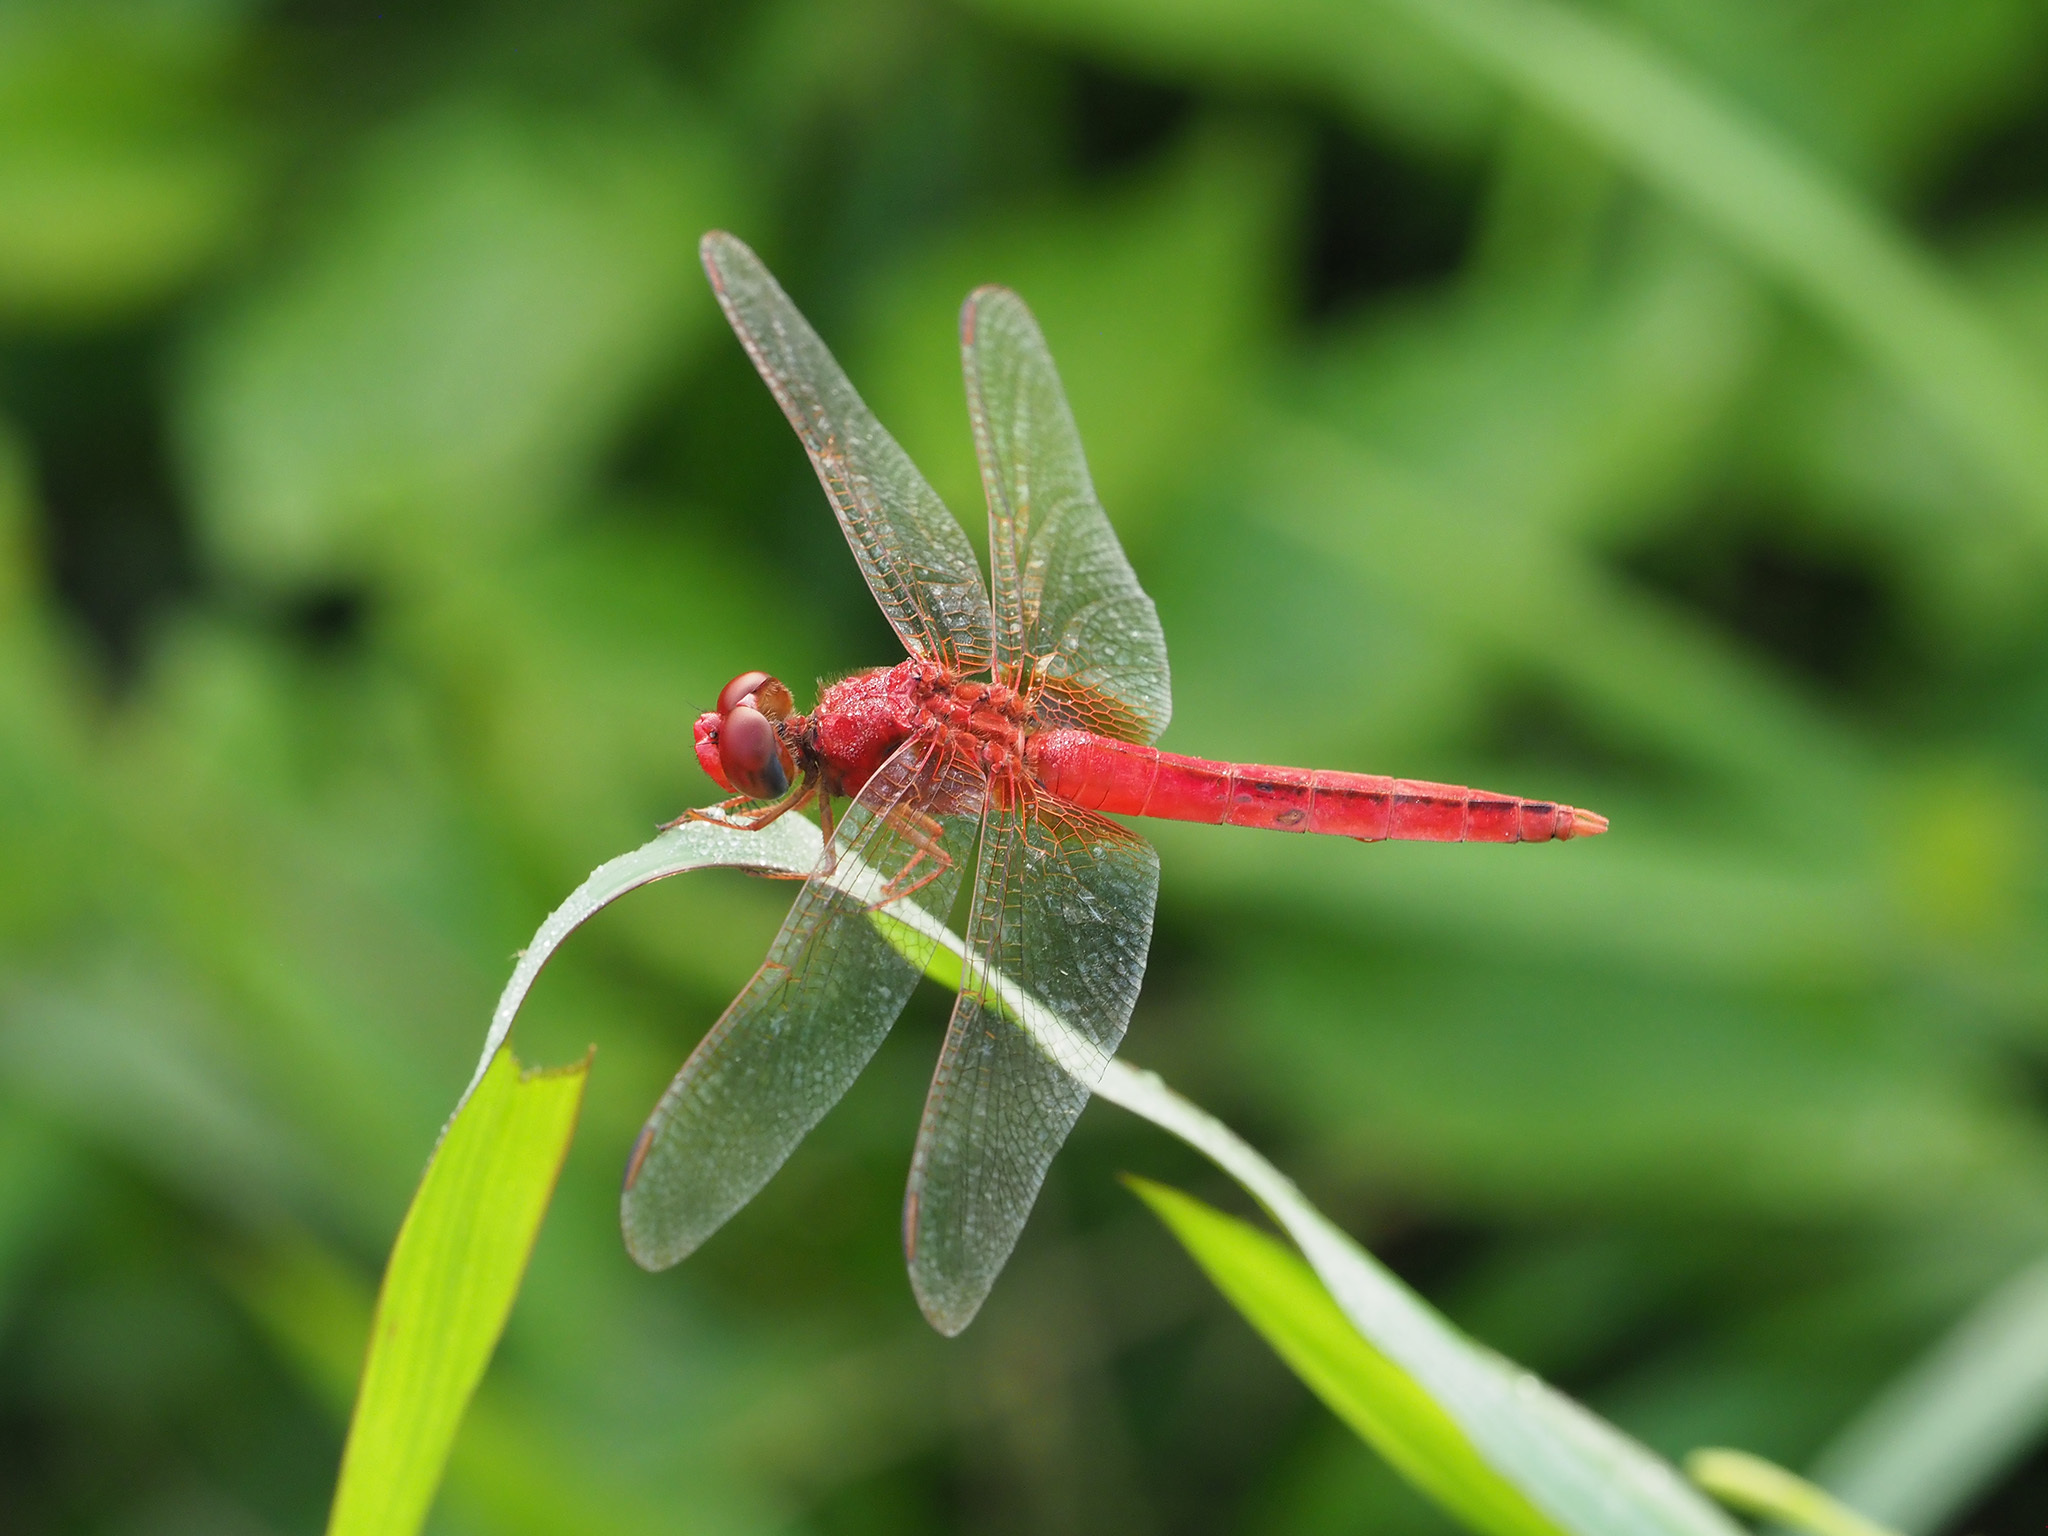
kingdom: Animalia
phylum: Arthropoda
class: Insecta
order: Odonata
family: Libellulidae
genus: Crocothemis
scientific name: Crocothemis servilia
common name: Scarlet skimmer
